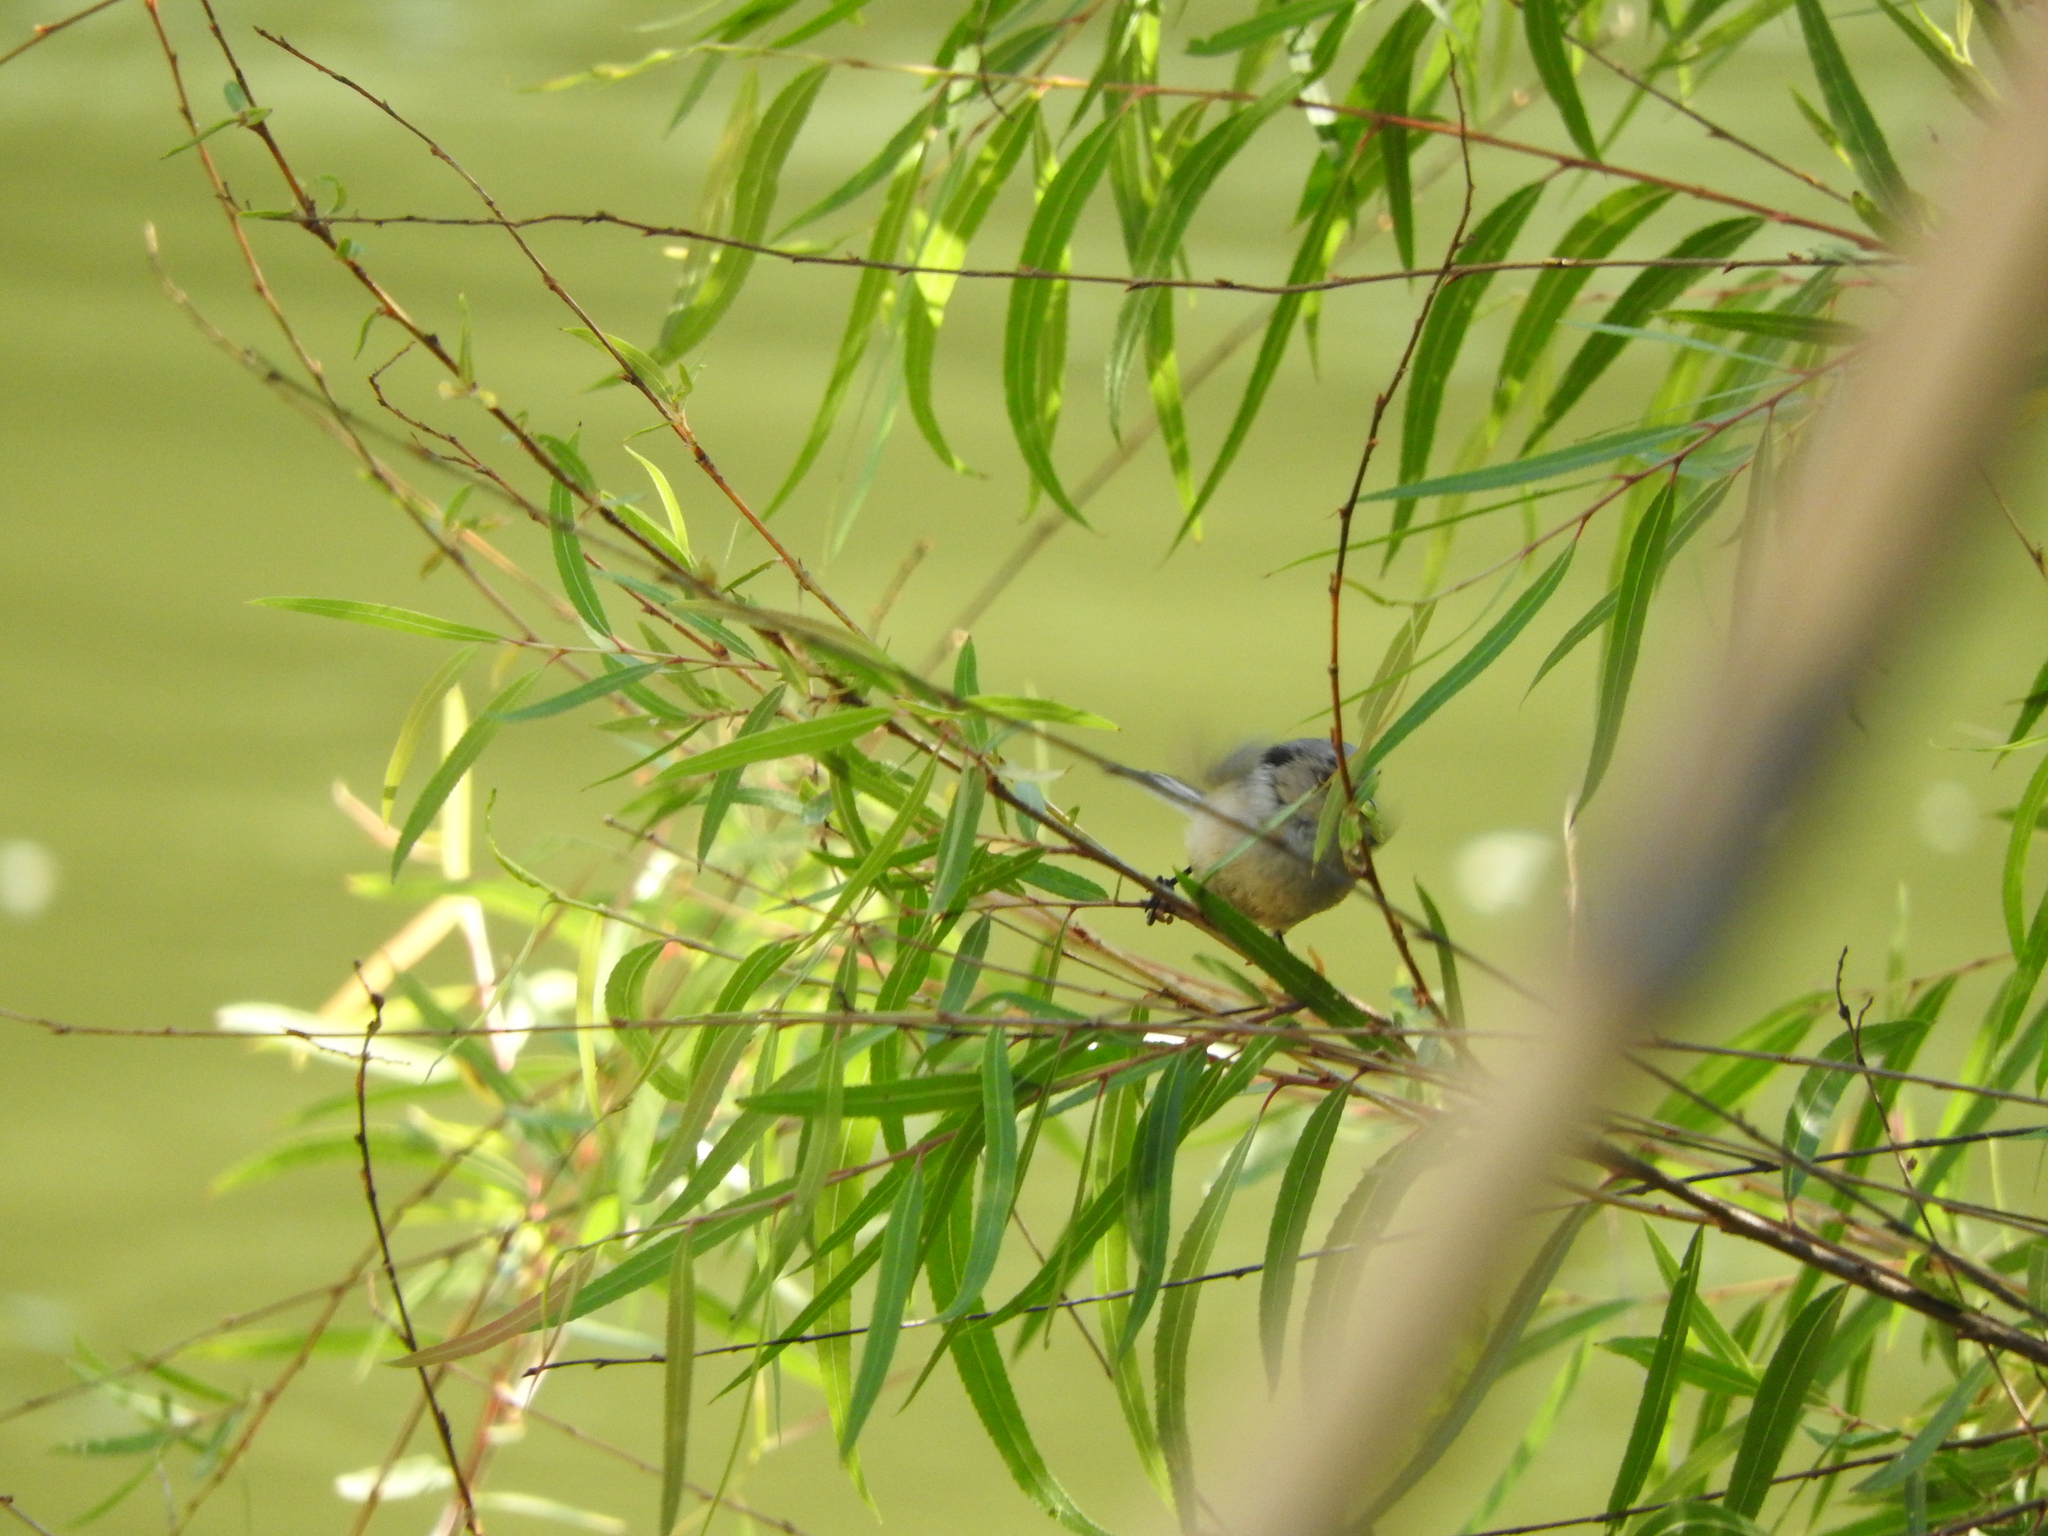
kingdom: Animalia
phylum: Chordata
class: Aves
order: Passeriformes
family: Aegithalidae
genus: Psaltriparus
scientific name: Psaltriparus minimus
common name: American bushtit
